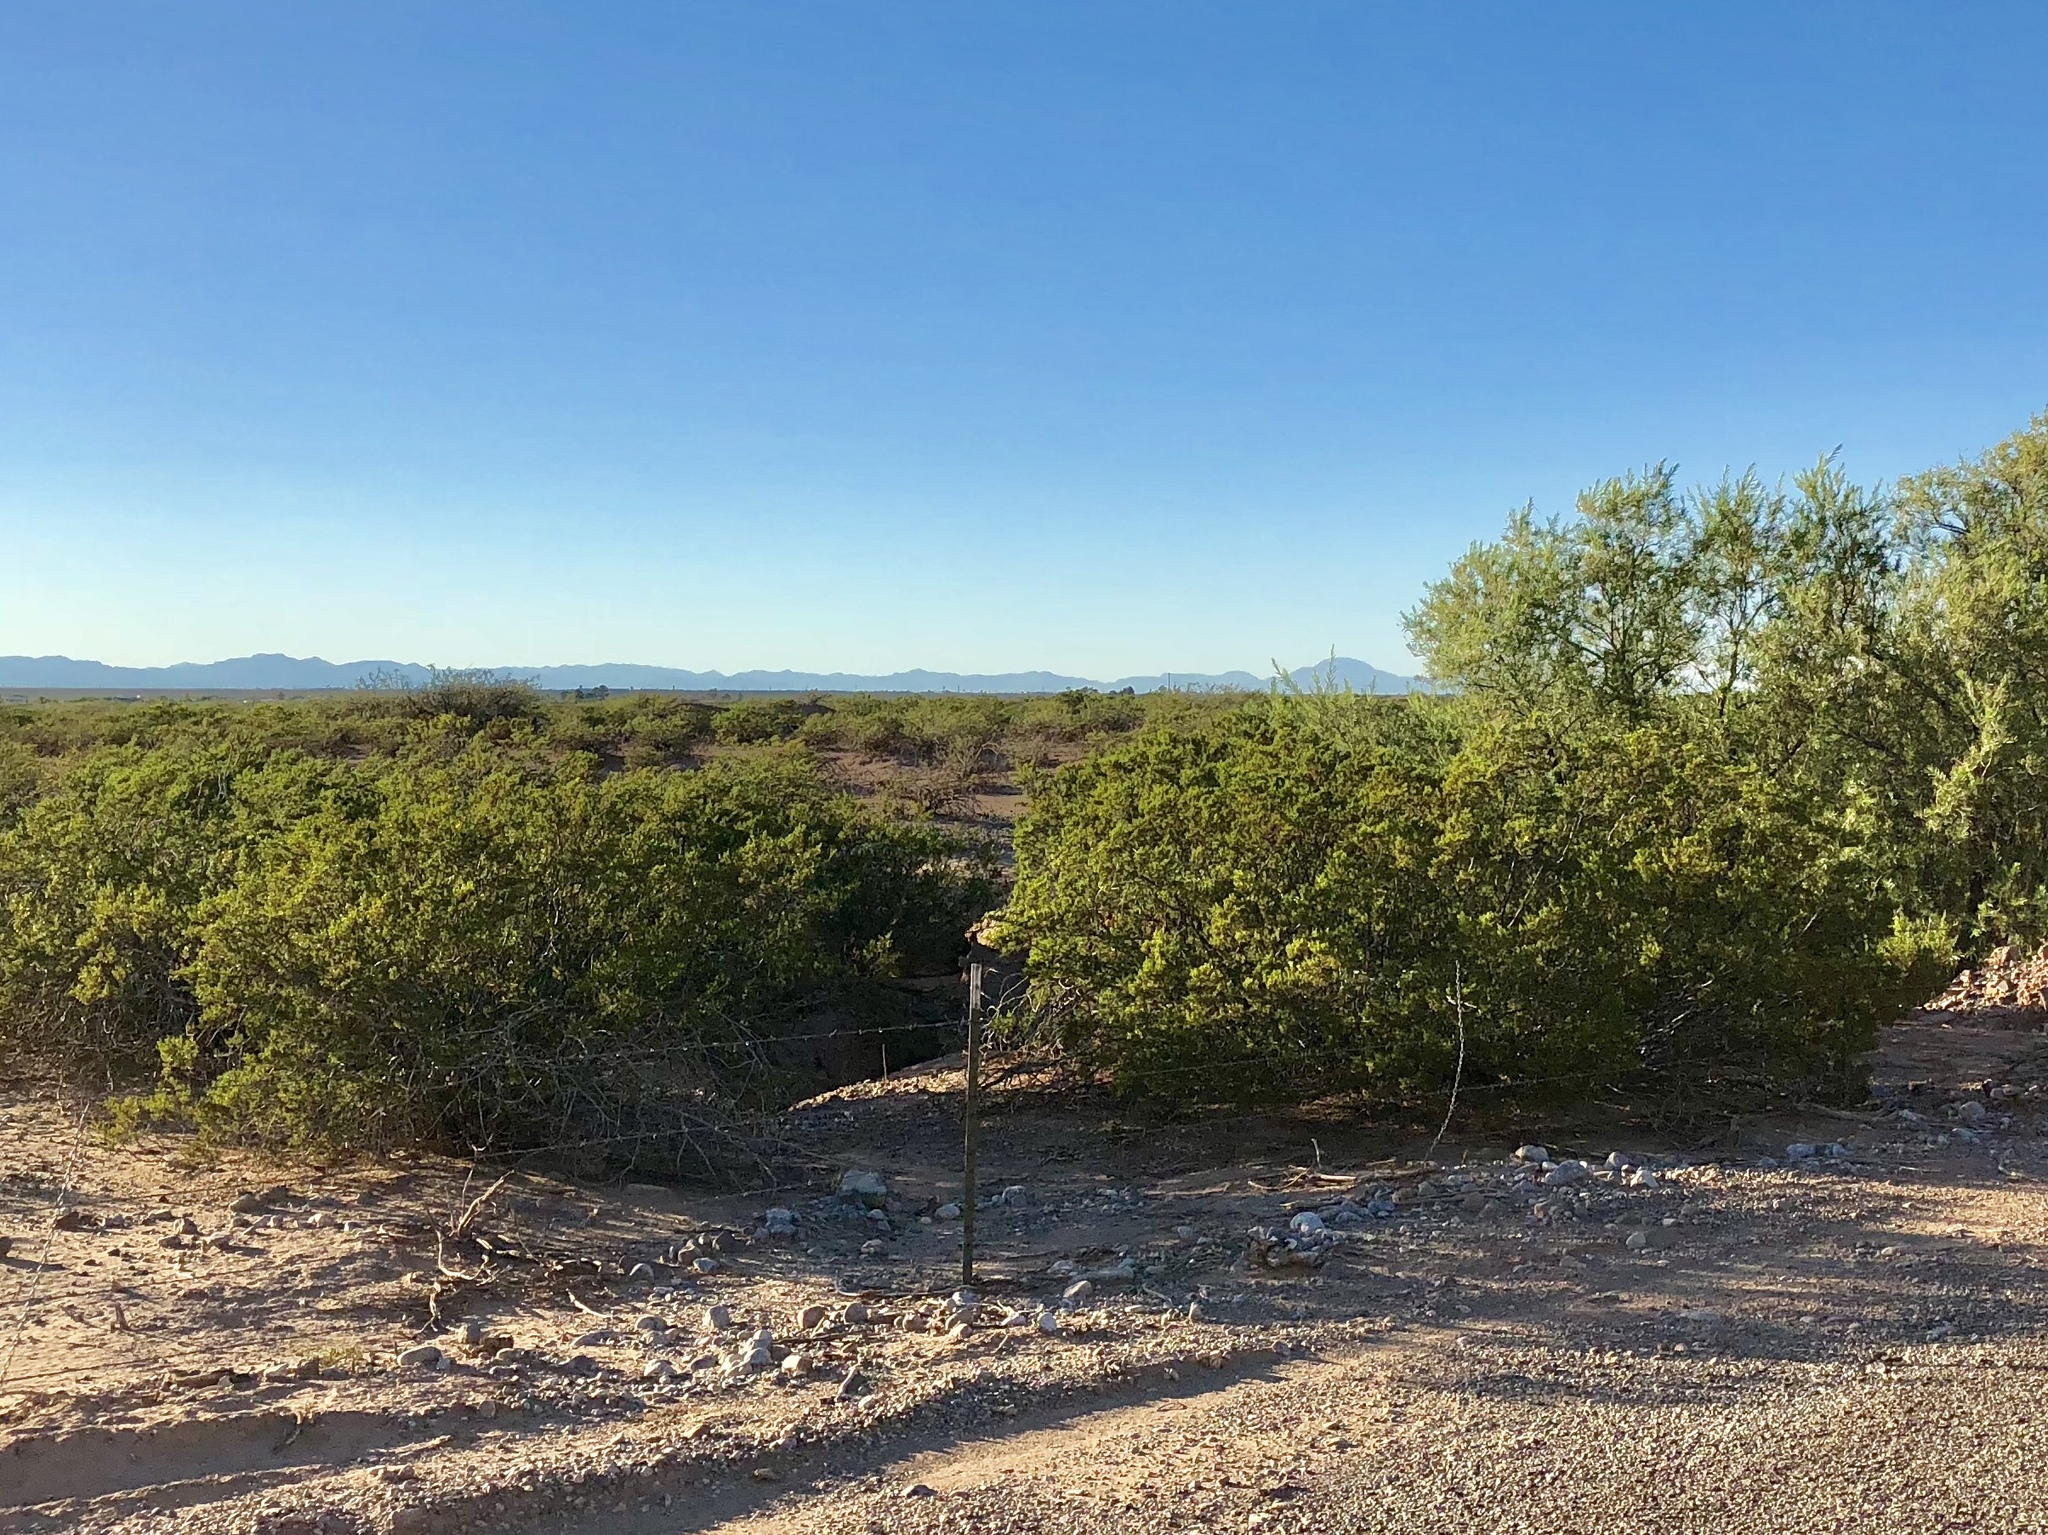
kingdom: Plantae
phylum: Tracheophyta
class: Magnoliopsida
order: Zygophyllales
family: Zygophyllaceae
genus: Larrea
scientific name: Larrea tridentata
